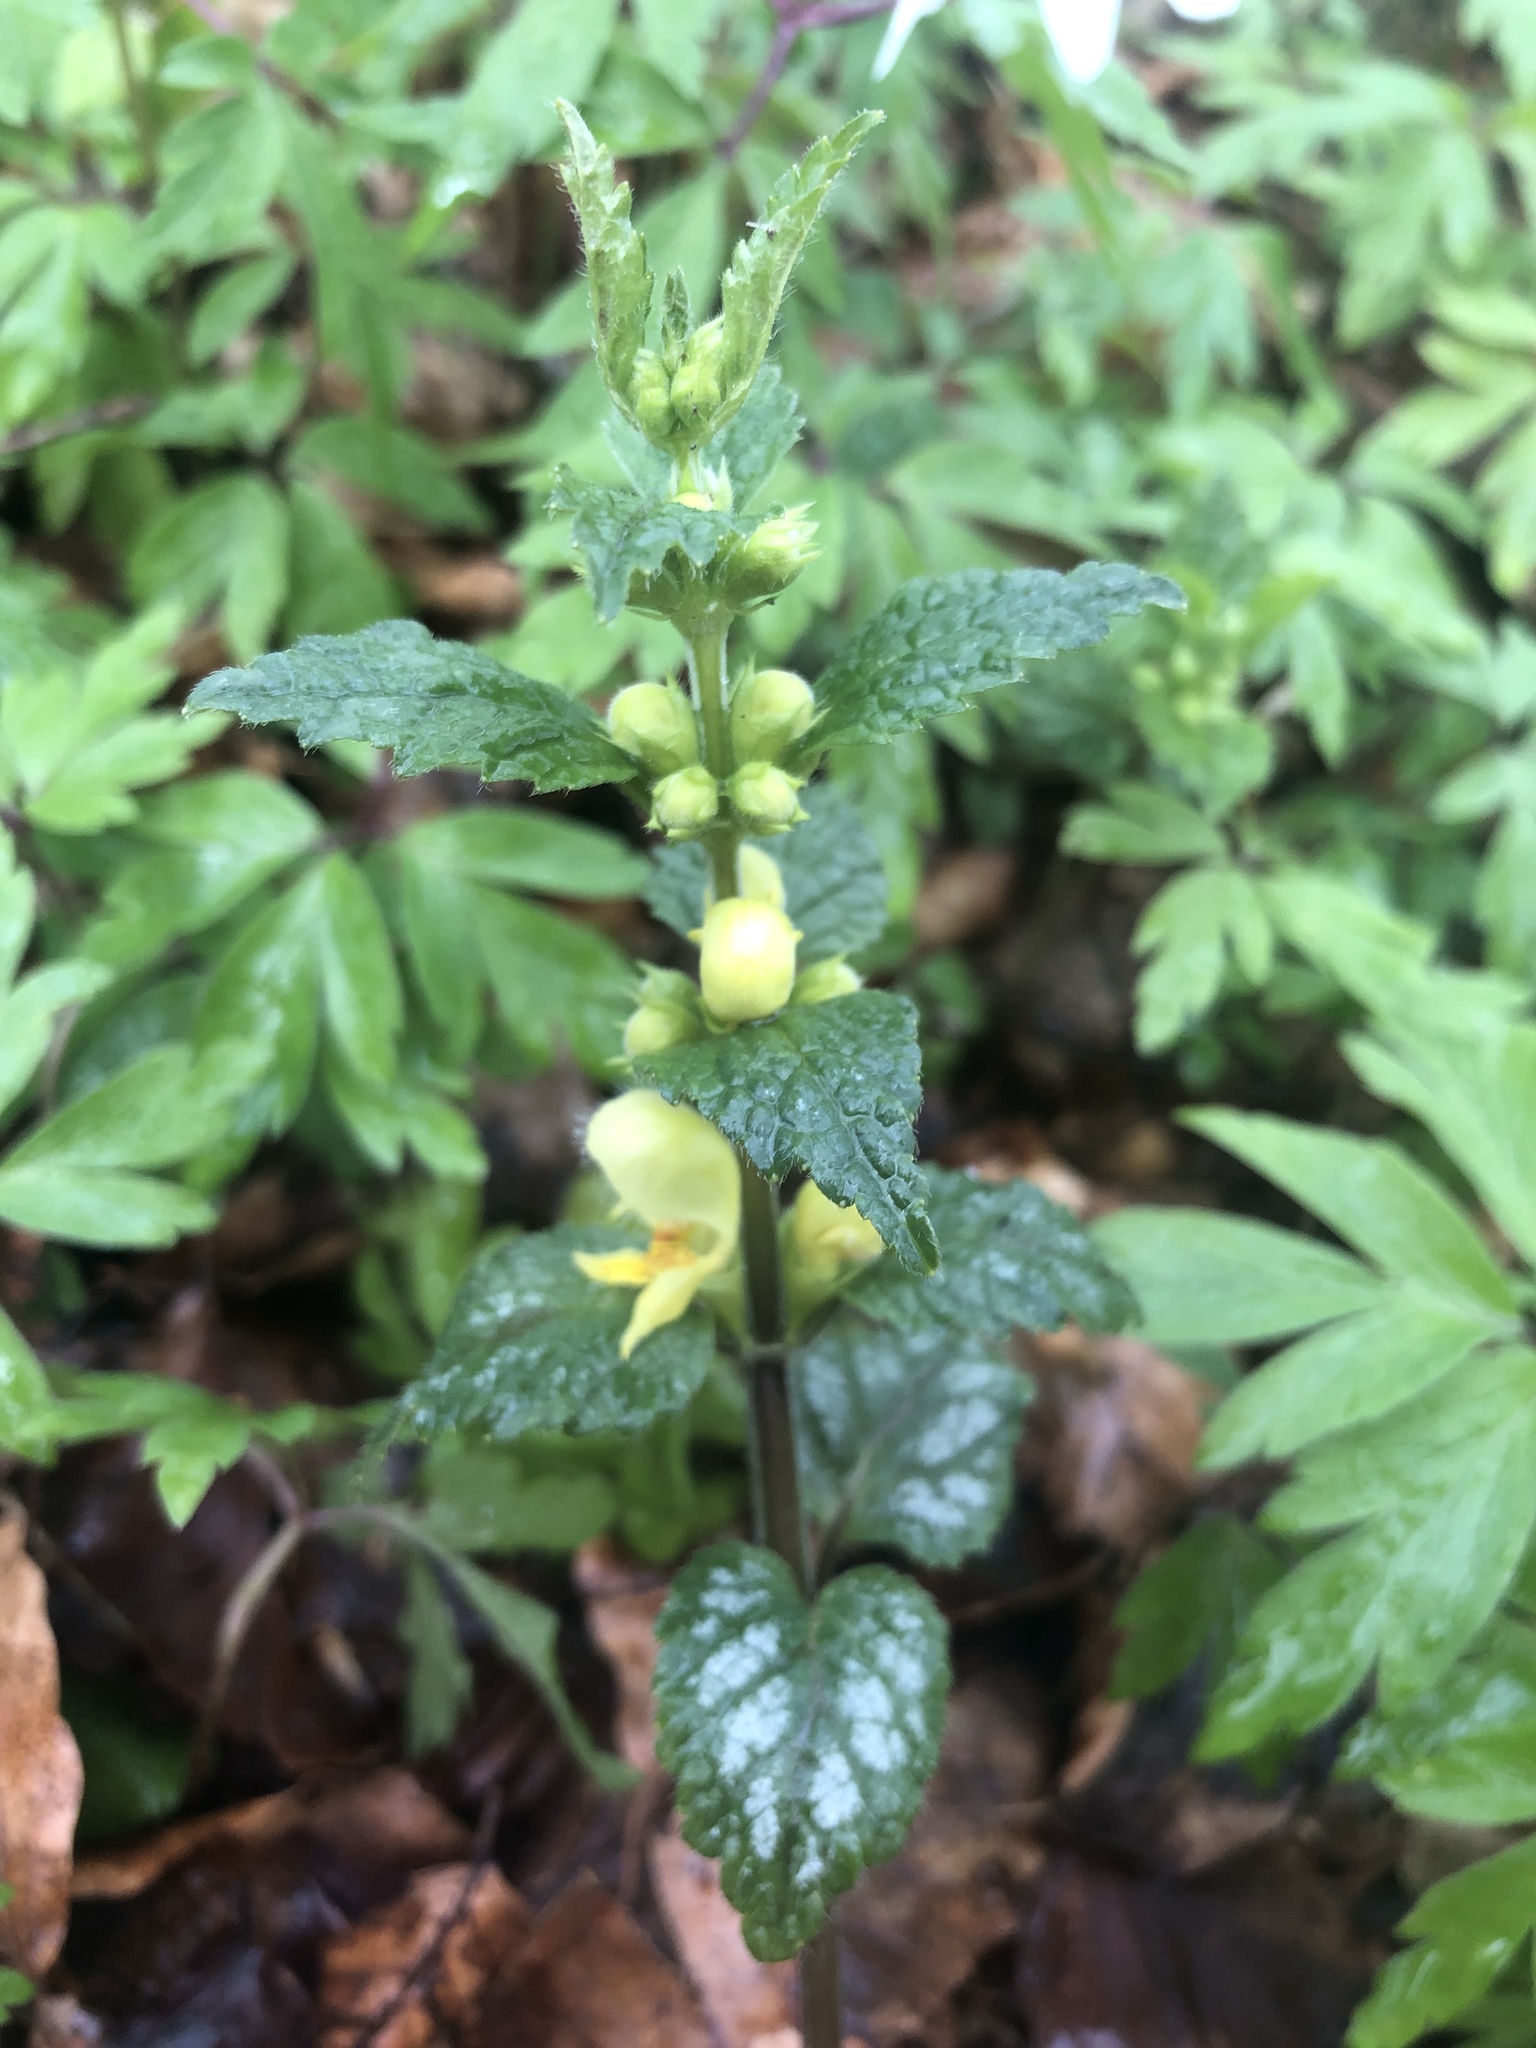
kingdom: Plantae
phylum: Tracheophyta
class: Magnoliopsida
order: Lamiales
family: Lamiaceae
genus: Lamium
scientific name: Lamium galeobdolon
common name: Yellow archangel
